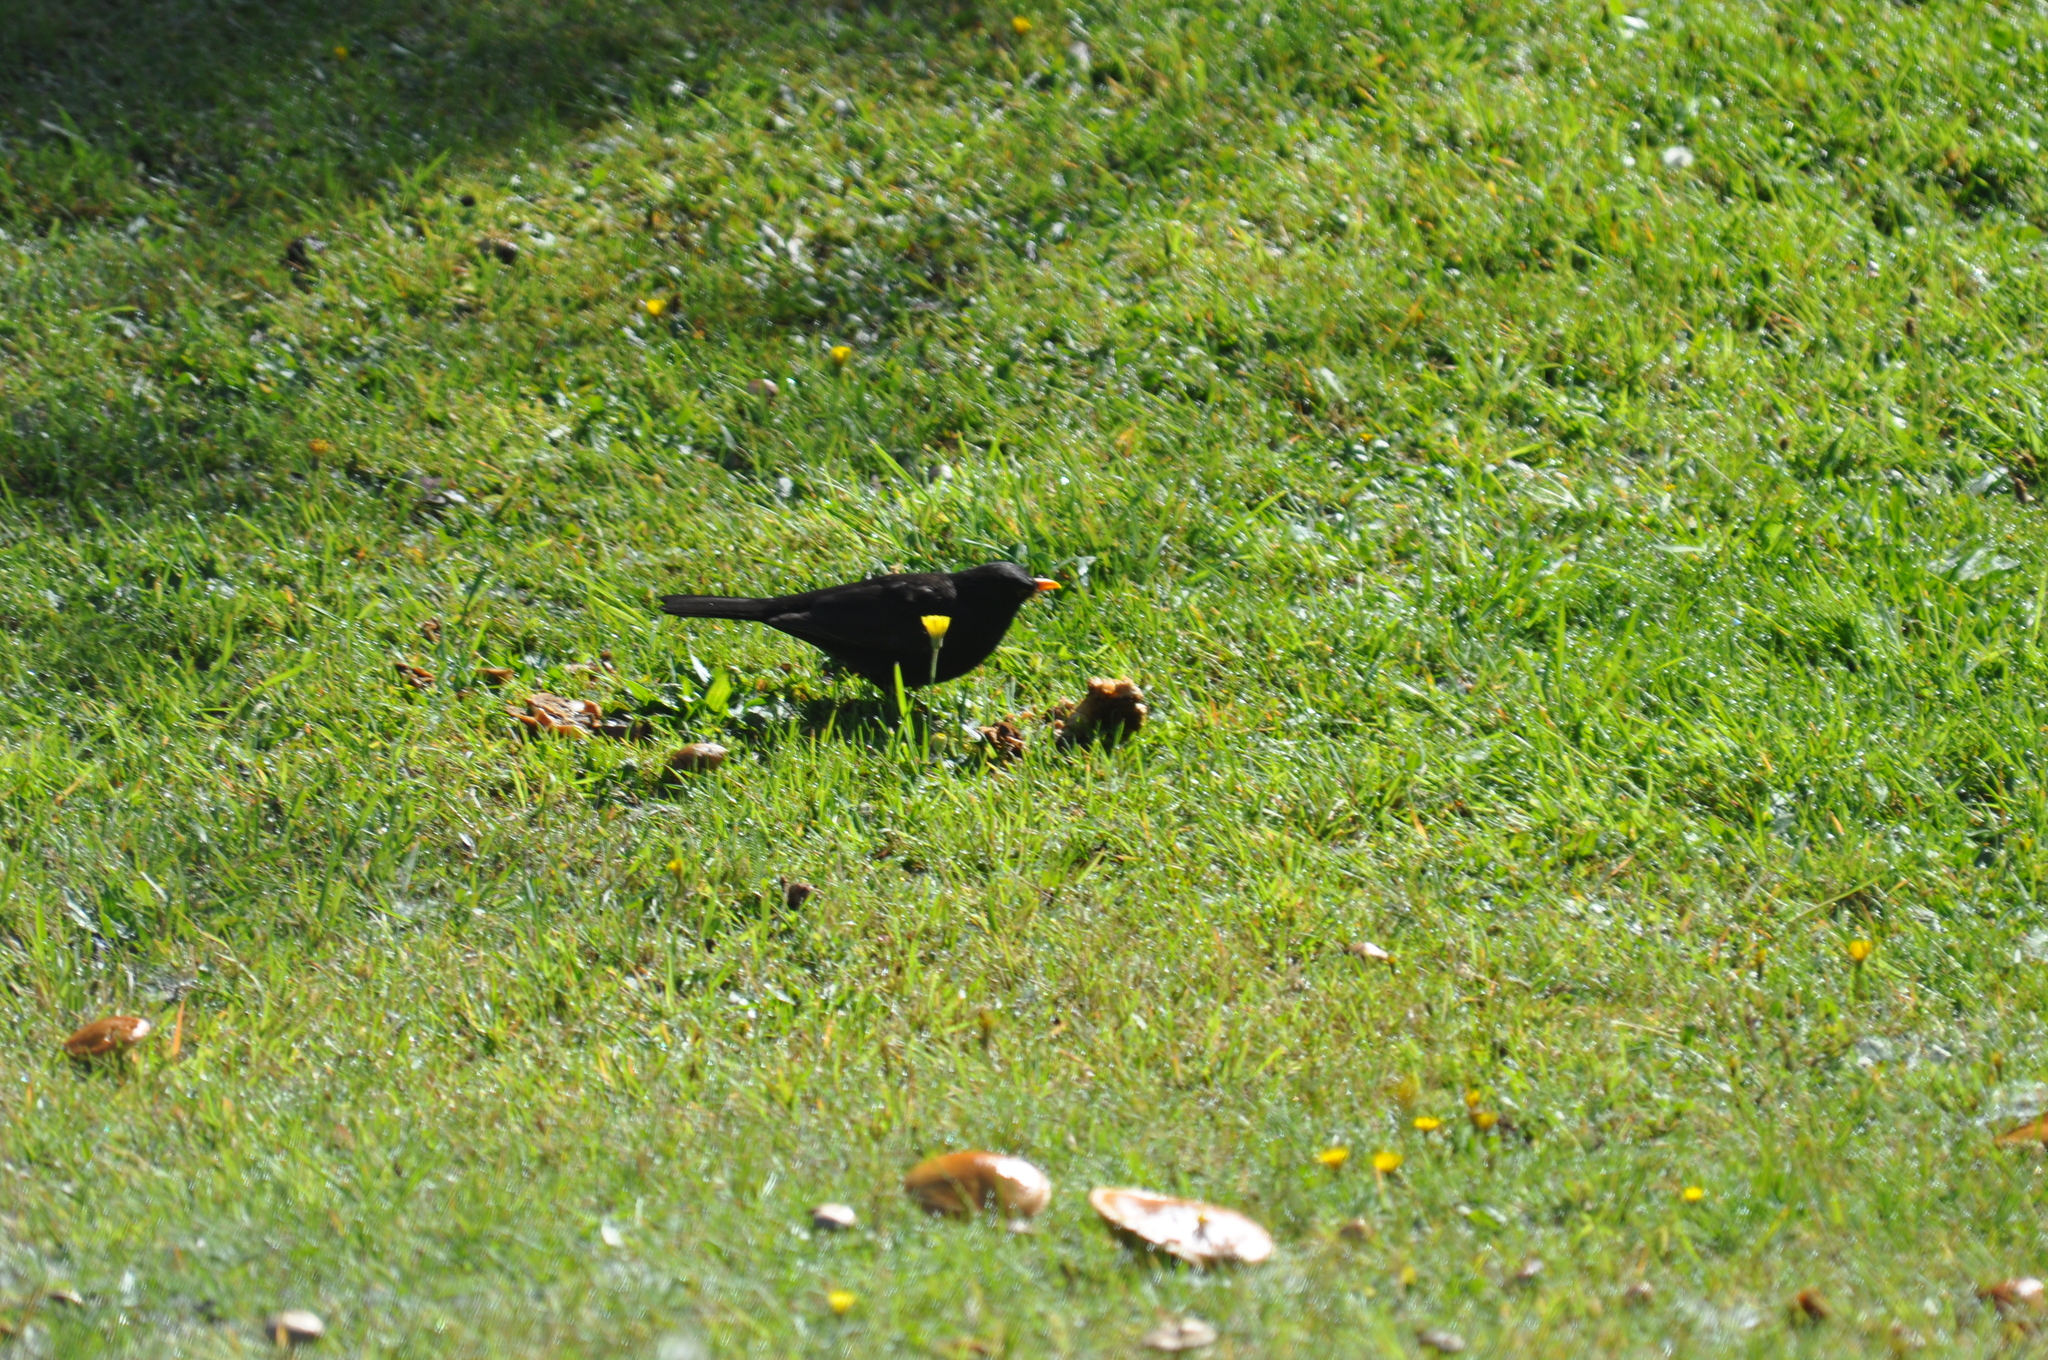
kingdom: Animalia
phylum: Chordata
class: Aves
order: Passeriformes
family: Turdidae
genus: Turdus
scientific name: Turdus merula
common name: Common blackbird
